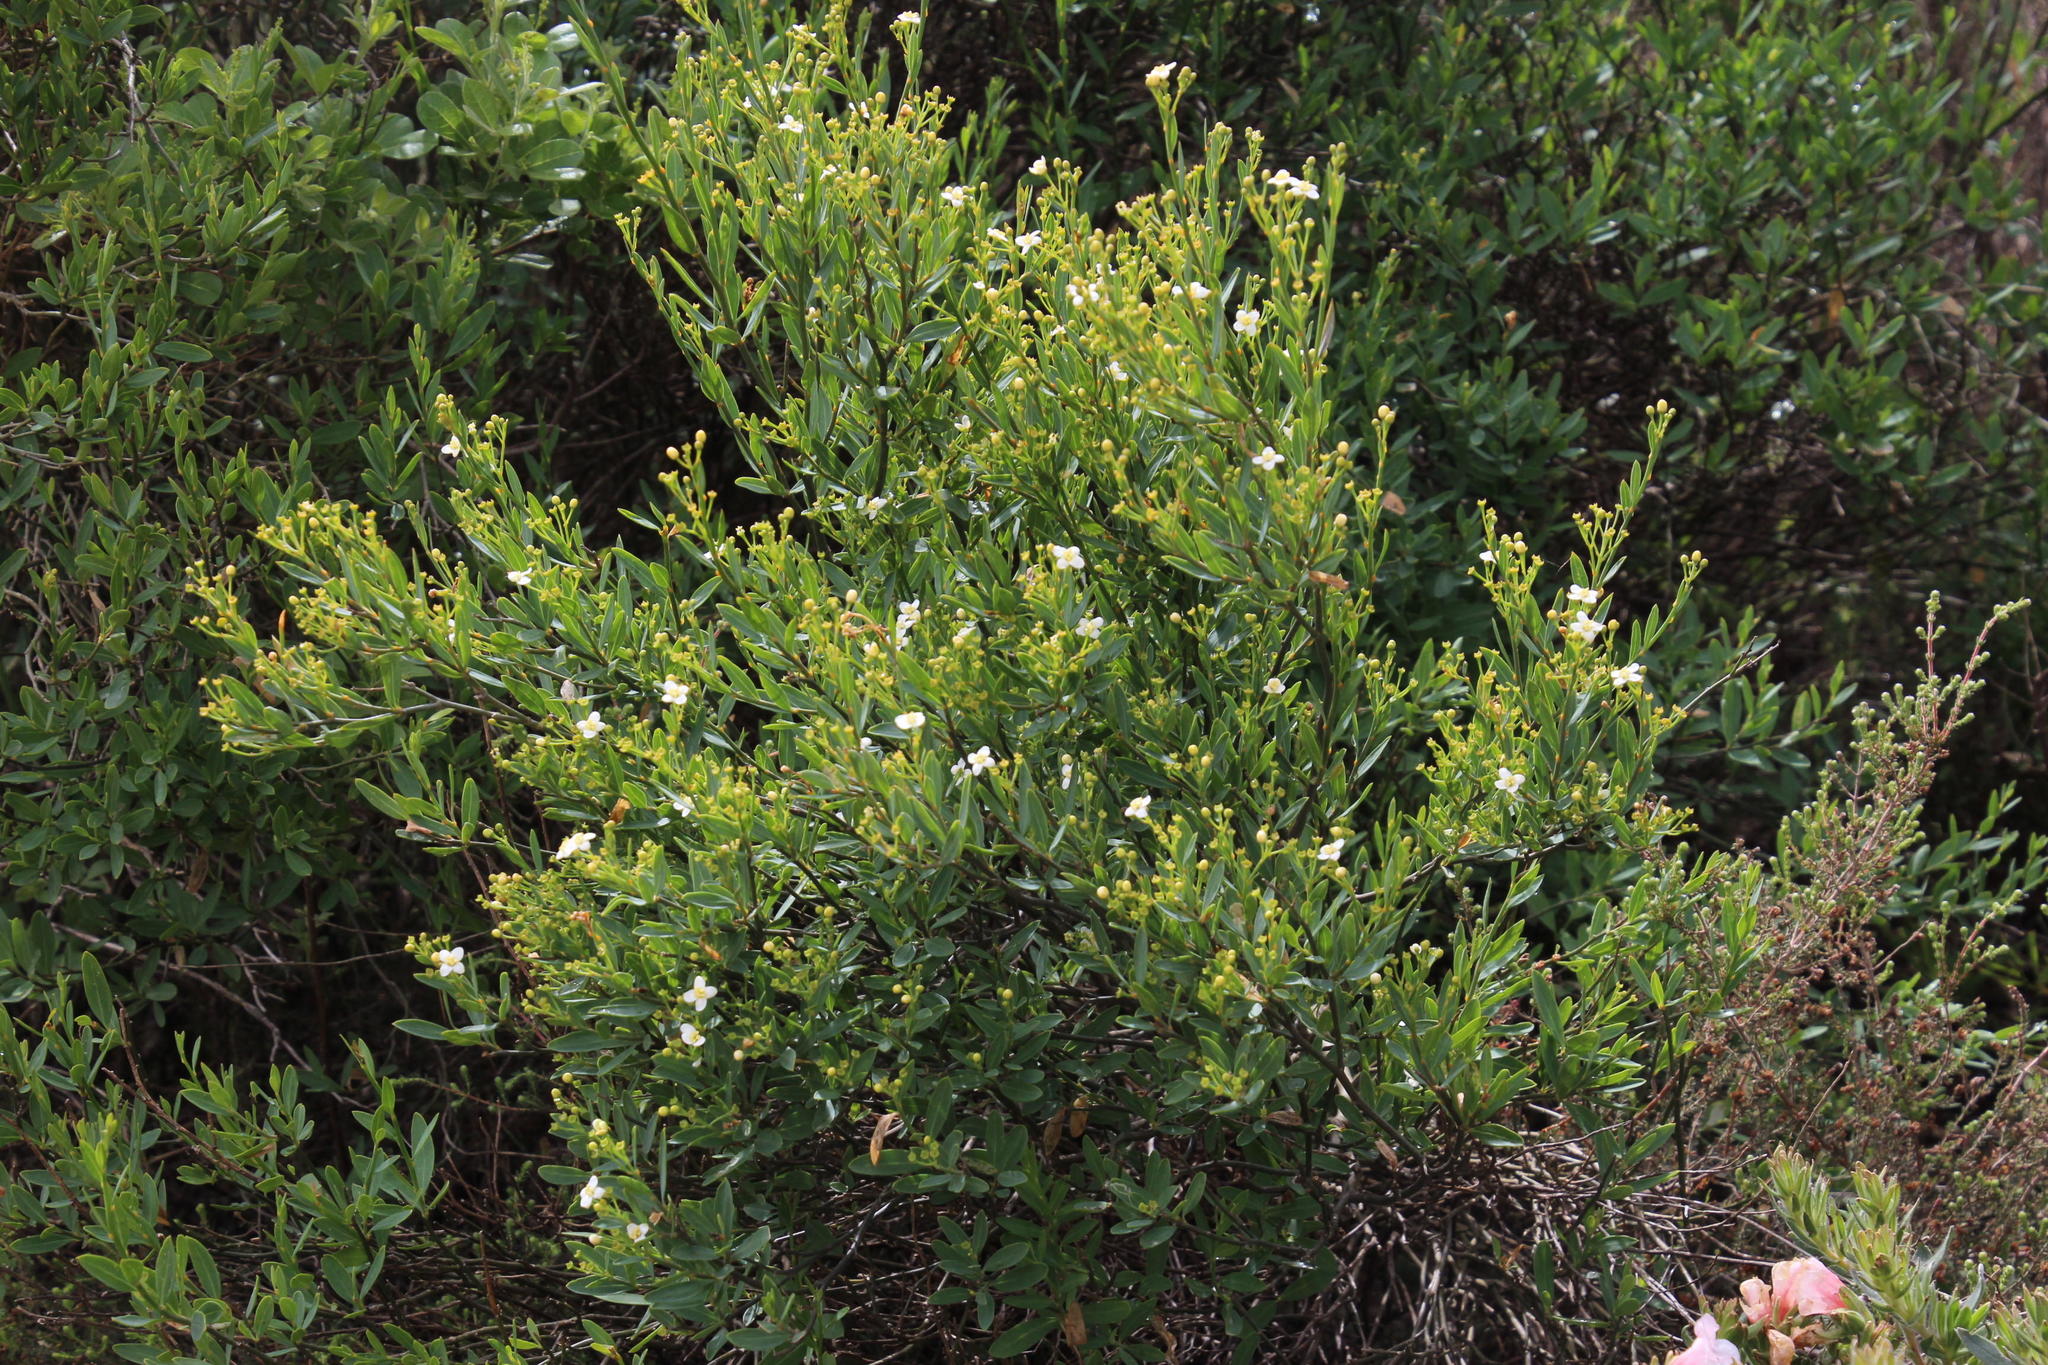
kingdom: Plantae
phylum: Tracheophyta
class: Magnoliopsida
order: Solanales
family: Montiniaceae
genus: Montinia
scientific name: Montinia caryophyllacea
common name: Wild clove-bush
